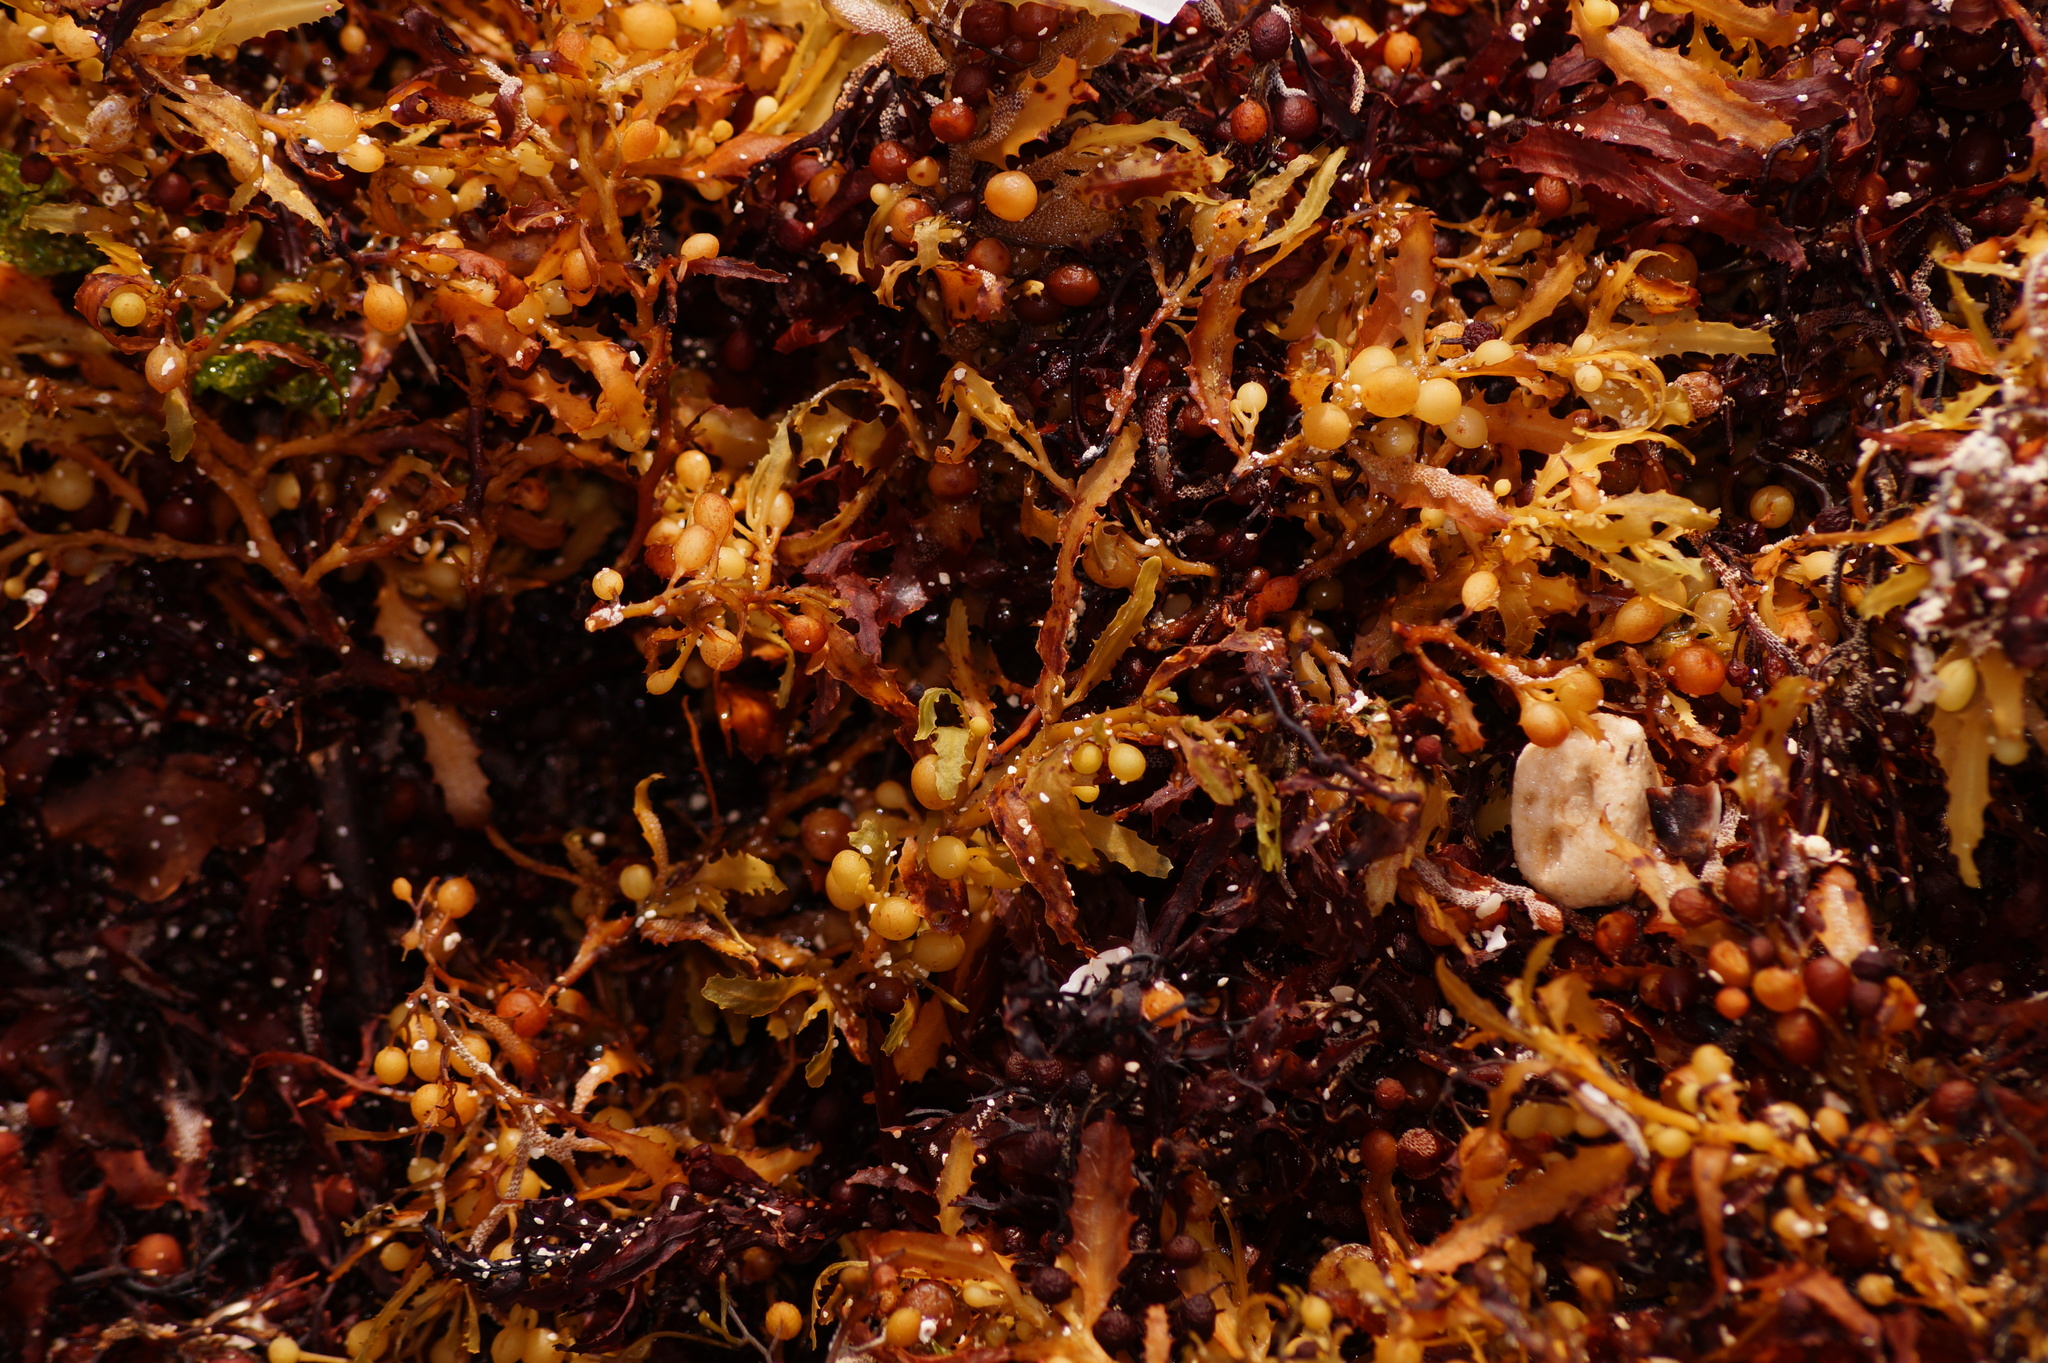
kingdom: Chromista
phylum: Ochrophyta
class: Phaeophyceae
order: Fucales
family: Sargassaceae
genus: Sargassum
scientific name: Sargassum fluitans
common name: Sargassum seaweed
